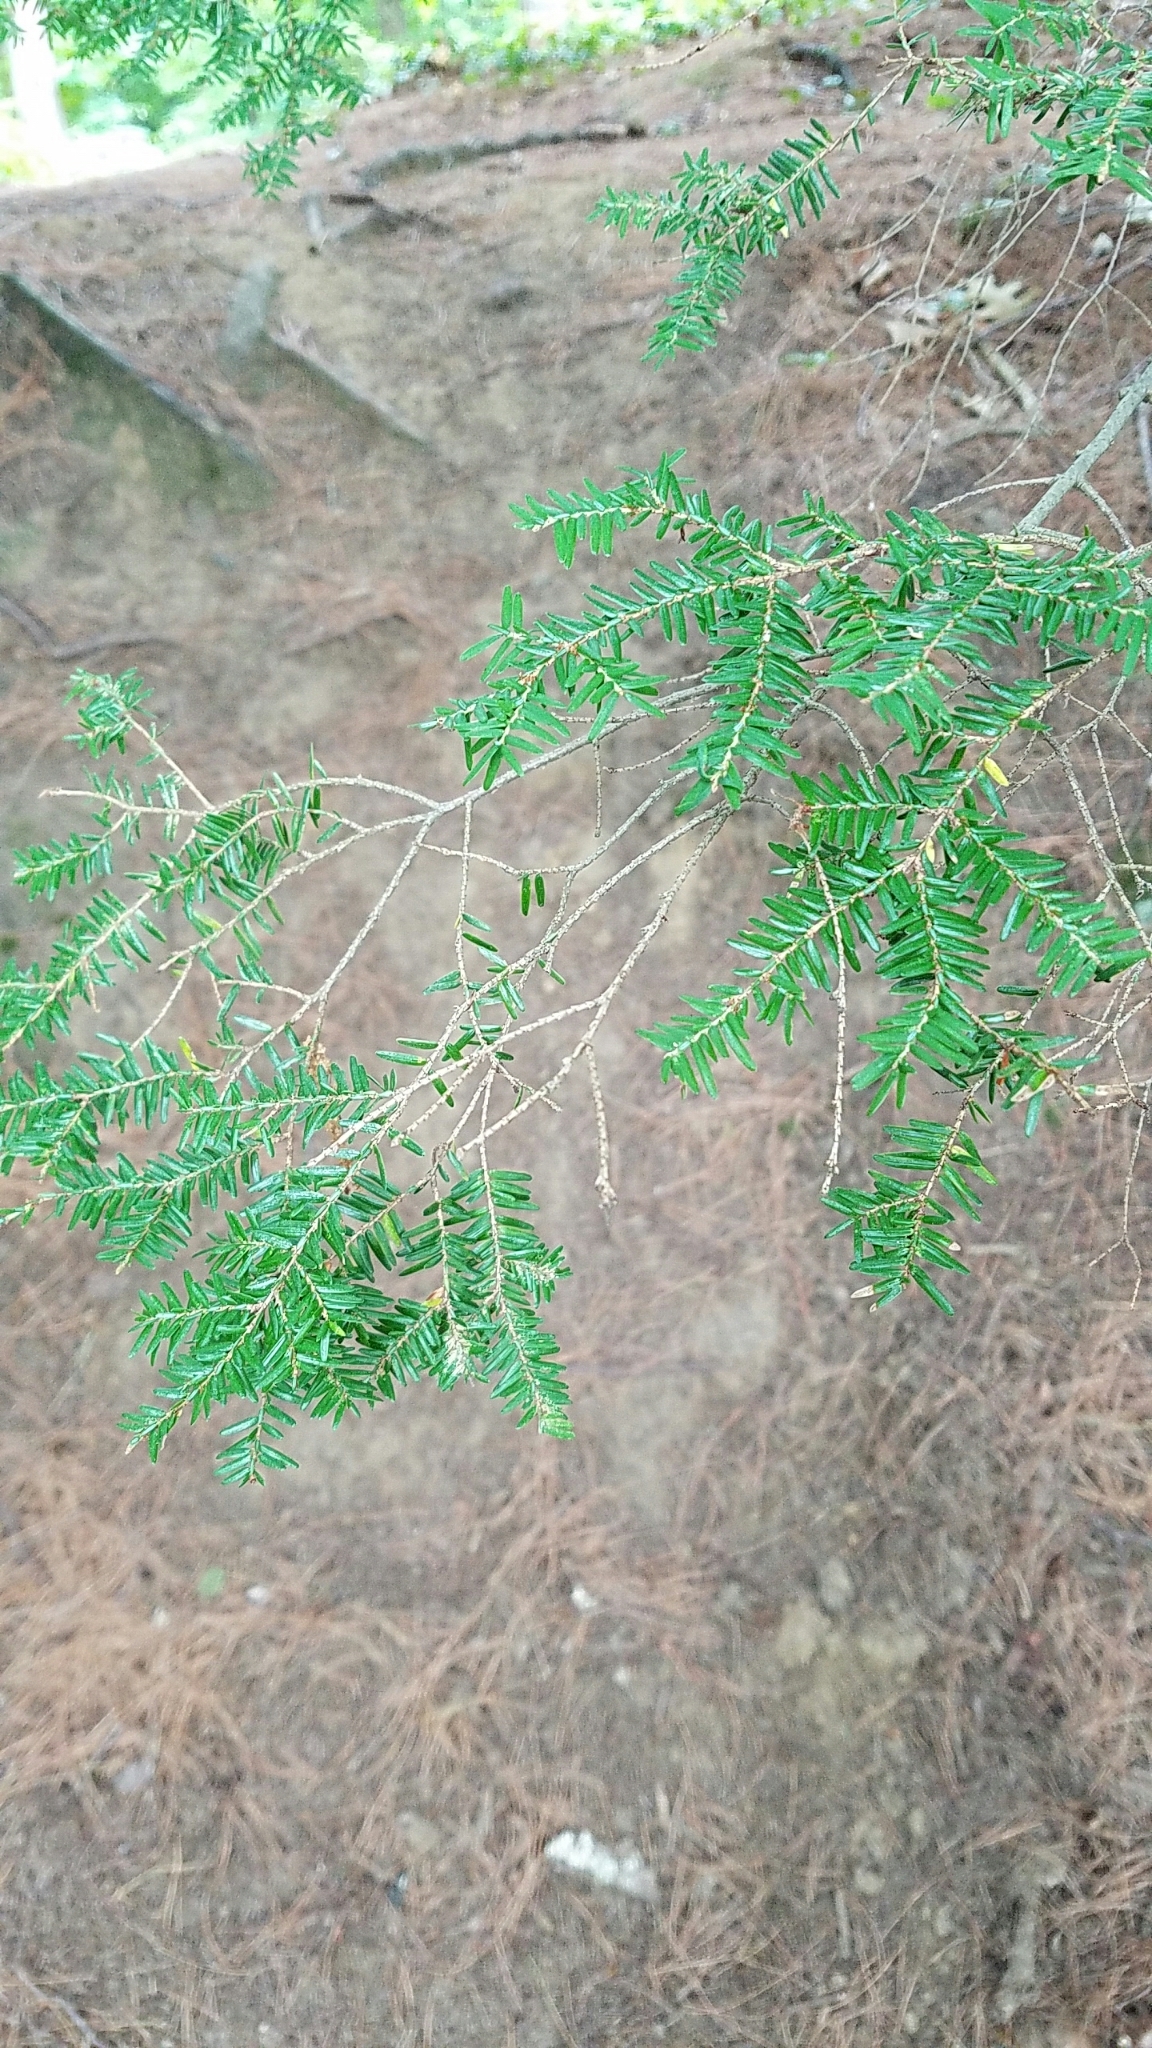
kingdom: Plantae
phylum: Tracheophyta
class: Pinopsida
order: Pinales
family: Pinaceae
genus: Tsuga
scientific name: Tsuga canadensis
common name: Eastern hemlock
